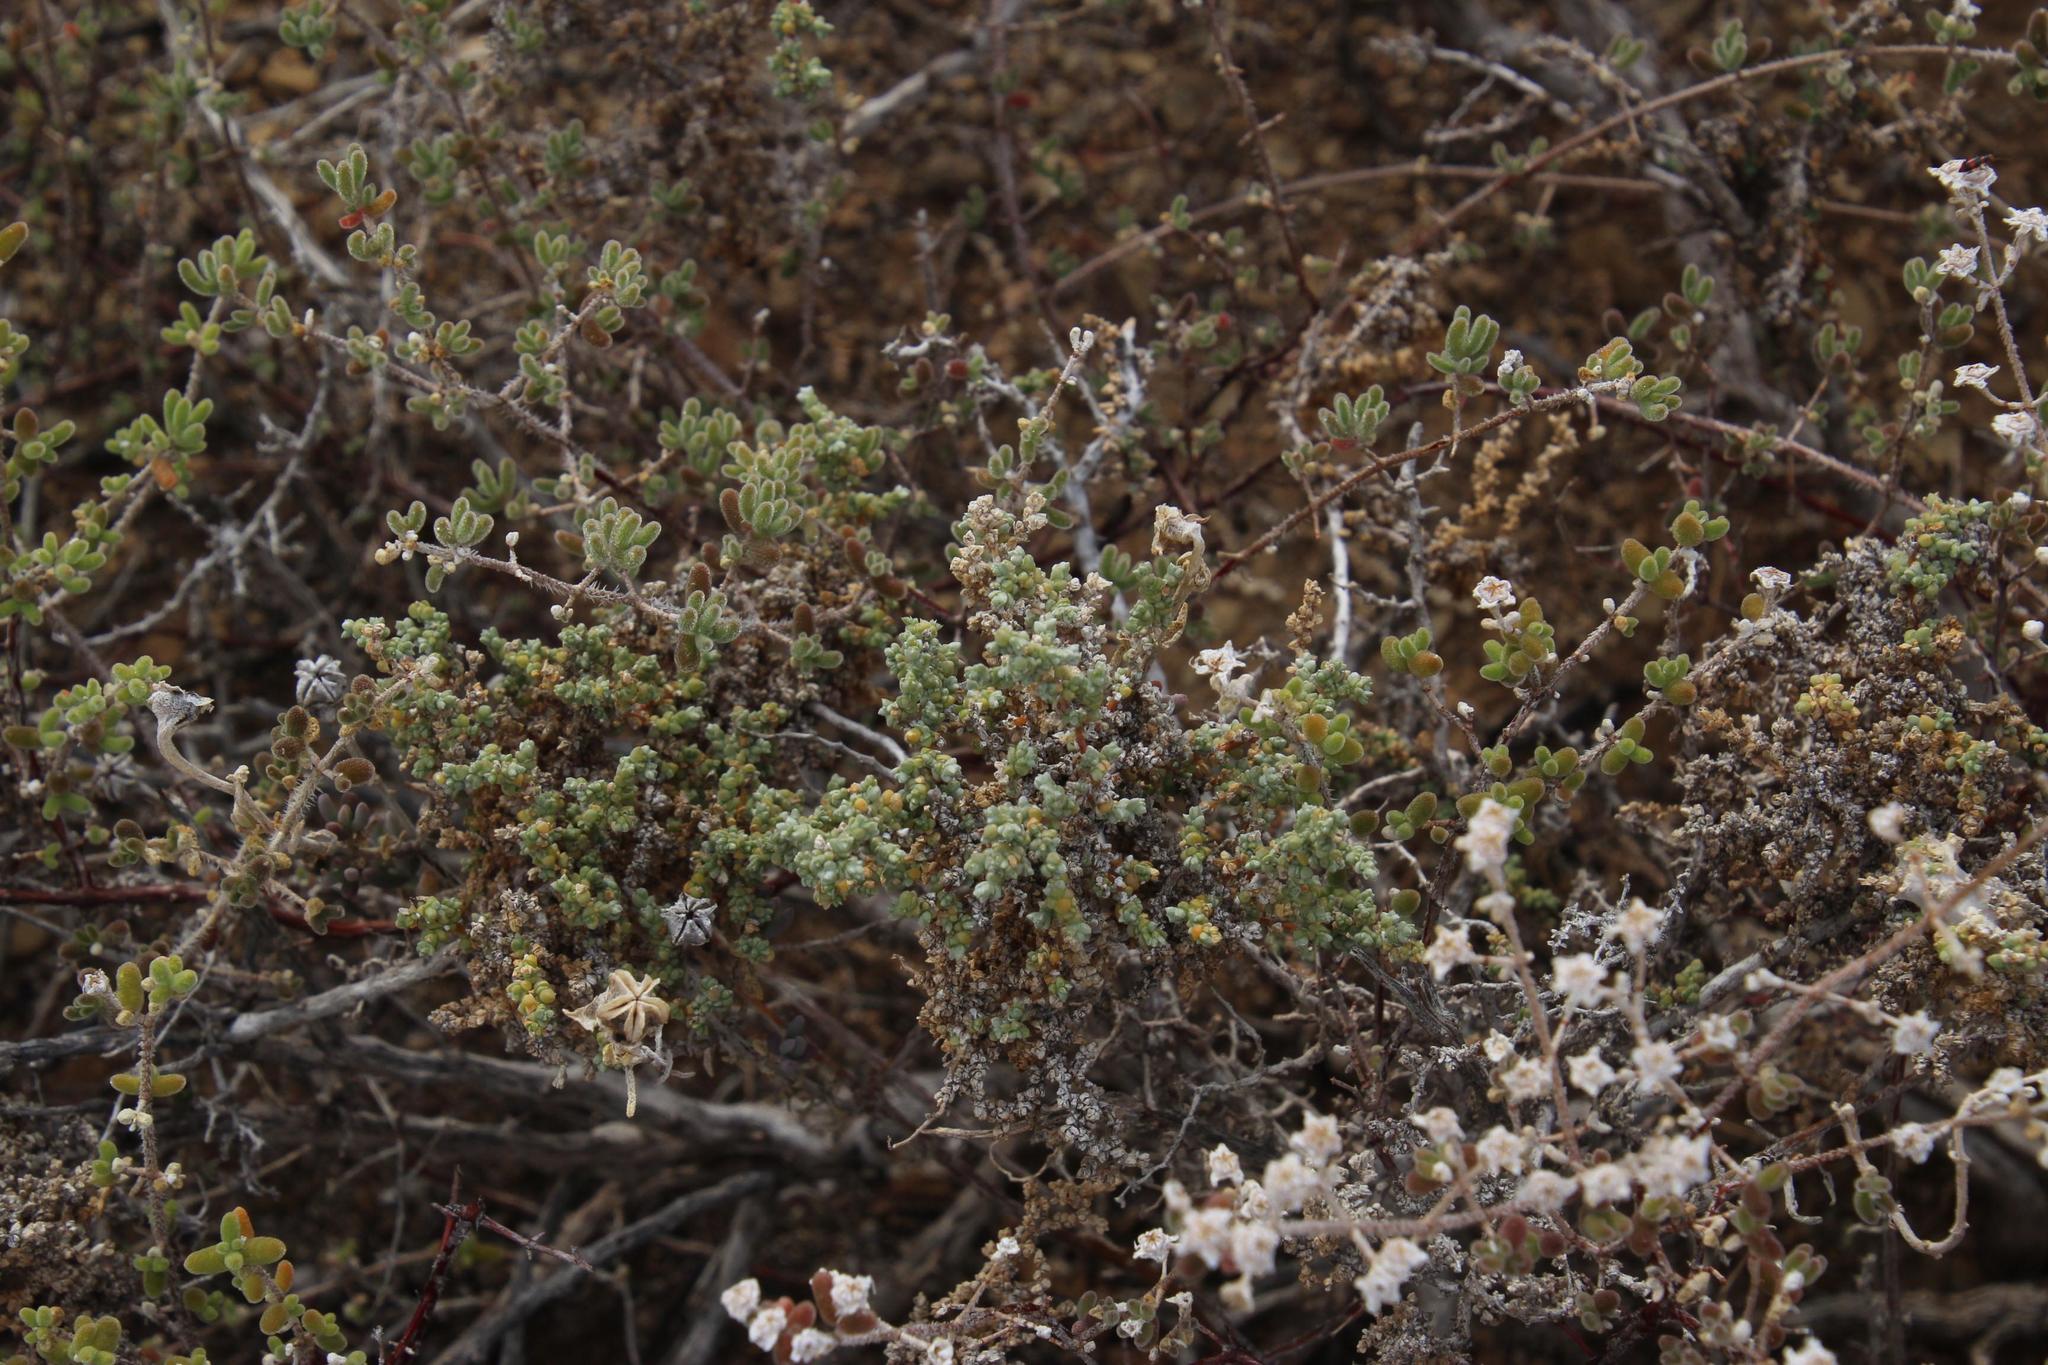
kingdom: Plantae
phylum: Tracheophyta
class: Magnoliopsida
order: Caryophyllales
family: Amaranthaceae
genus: Caroxylon
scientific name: Caroxylon aphyllum
